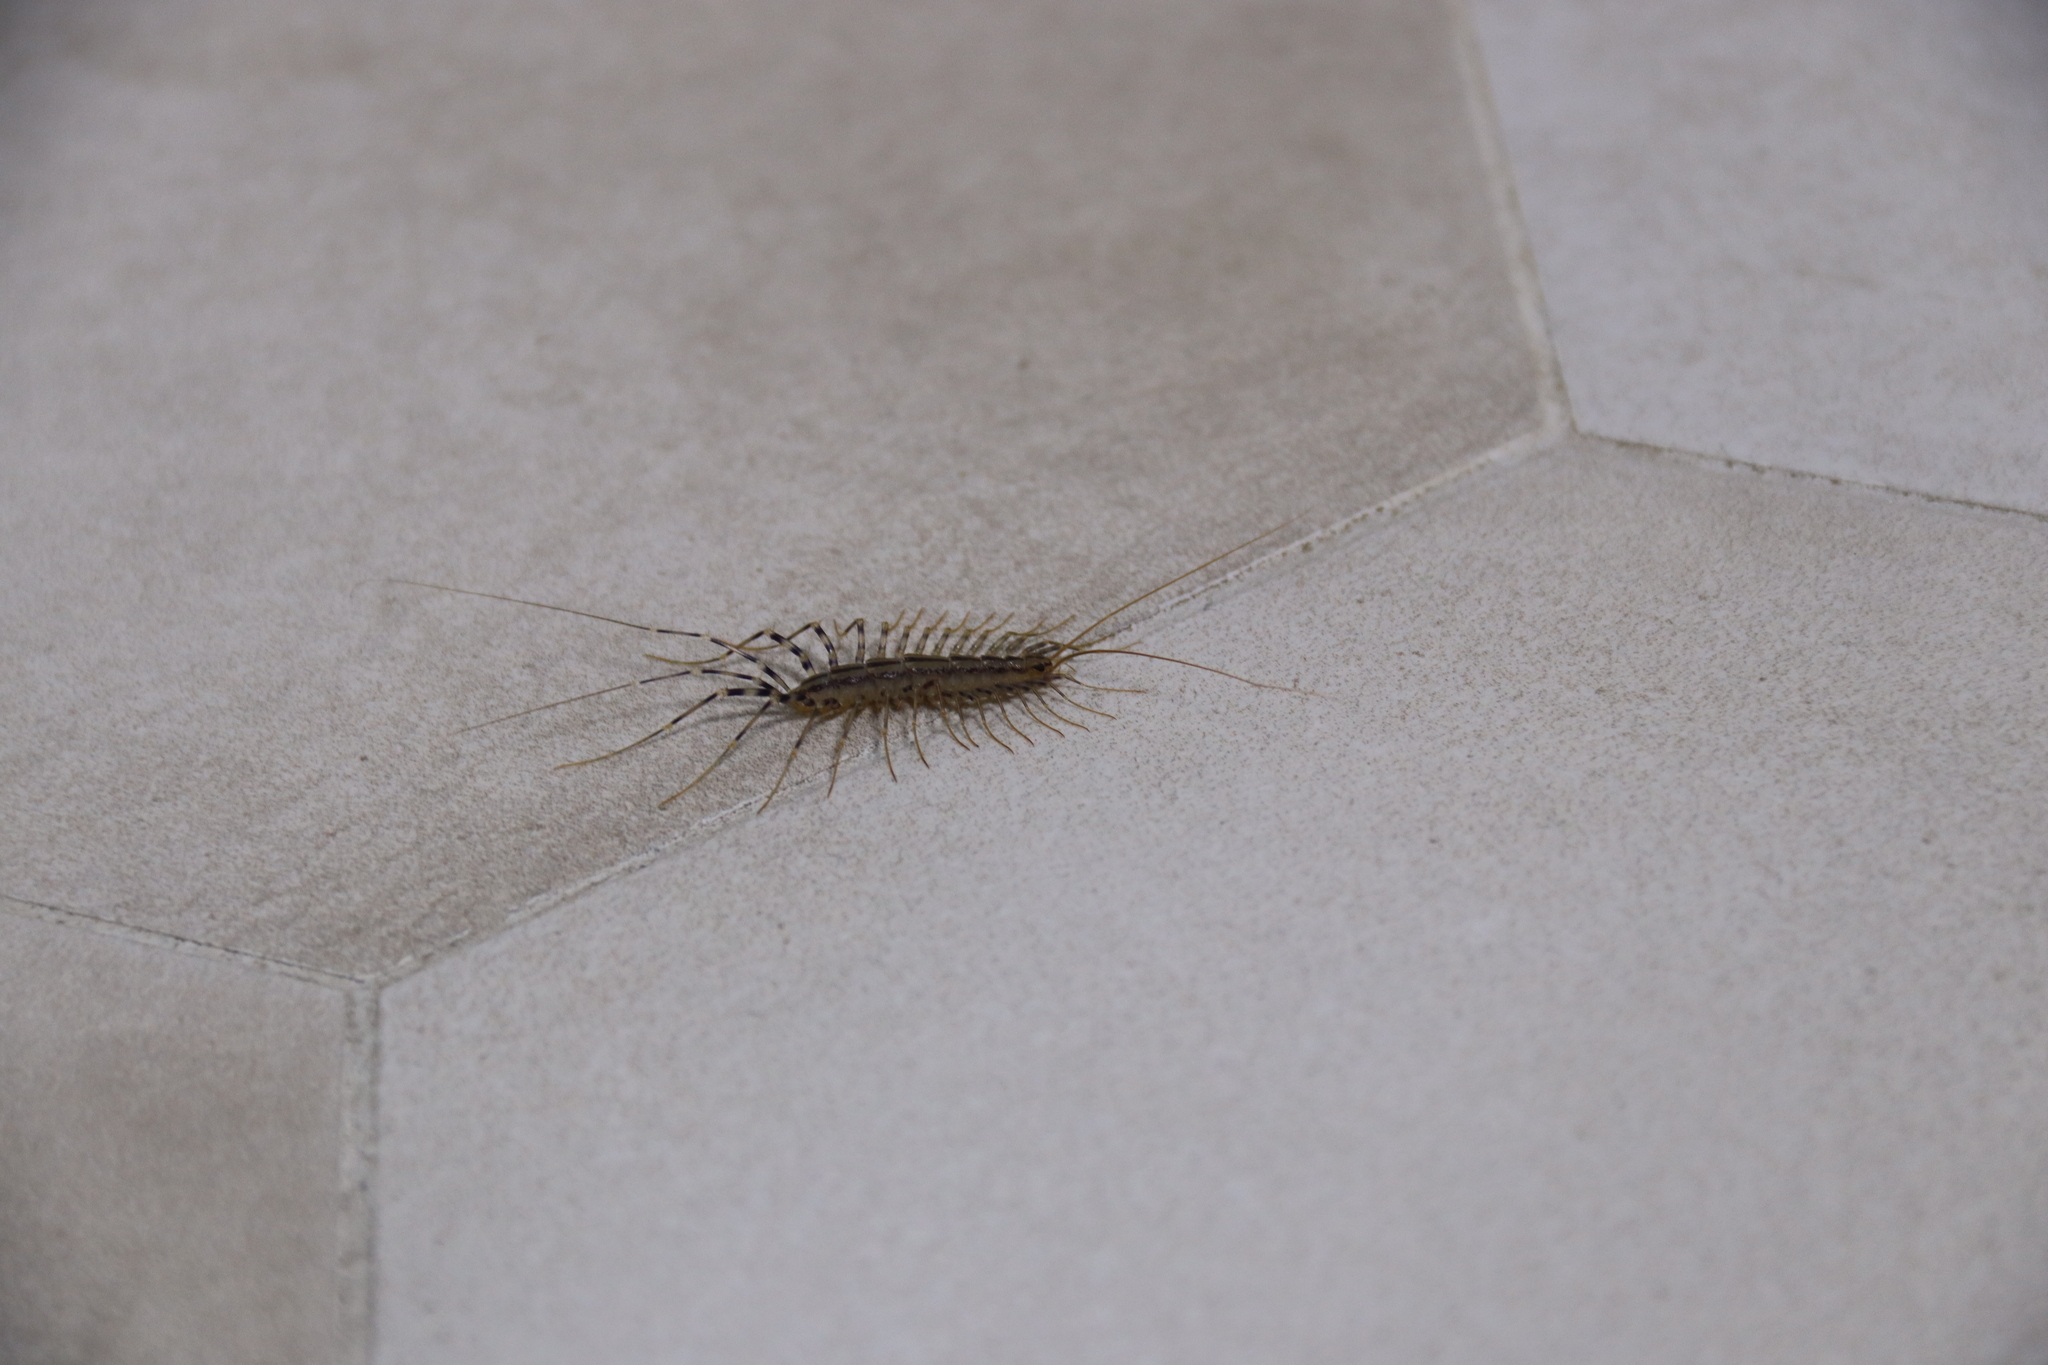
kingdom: Animalia
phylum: Arthropoda
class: Chilopoda
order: Scutigeromorpha
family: Scutigeridae
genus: Scutigera
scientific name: Scutigera coleoptrata
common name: House centipede
